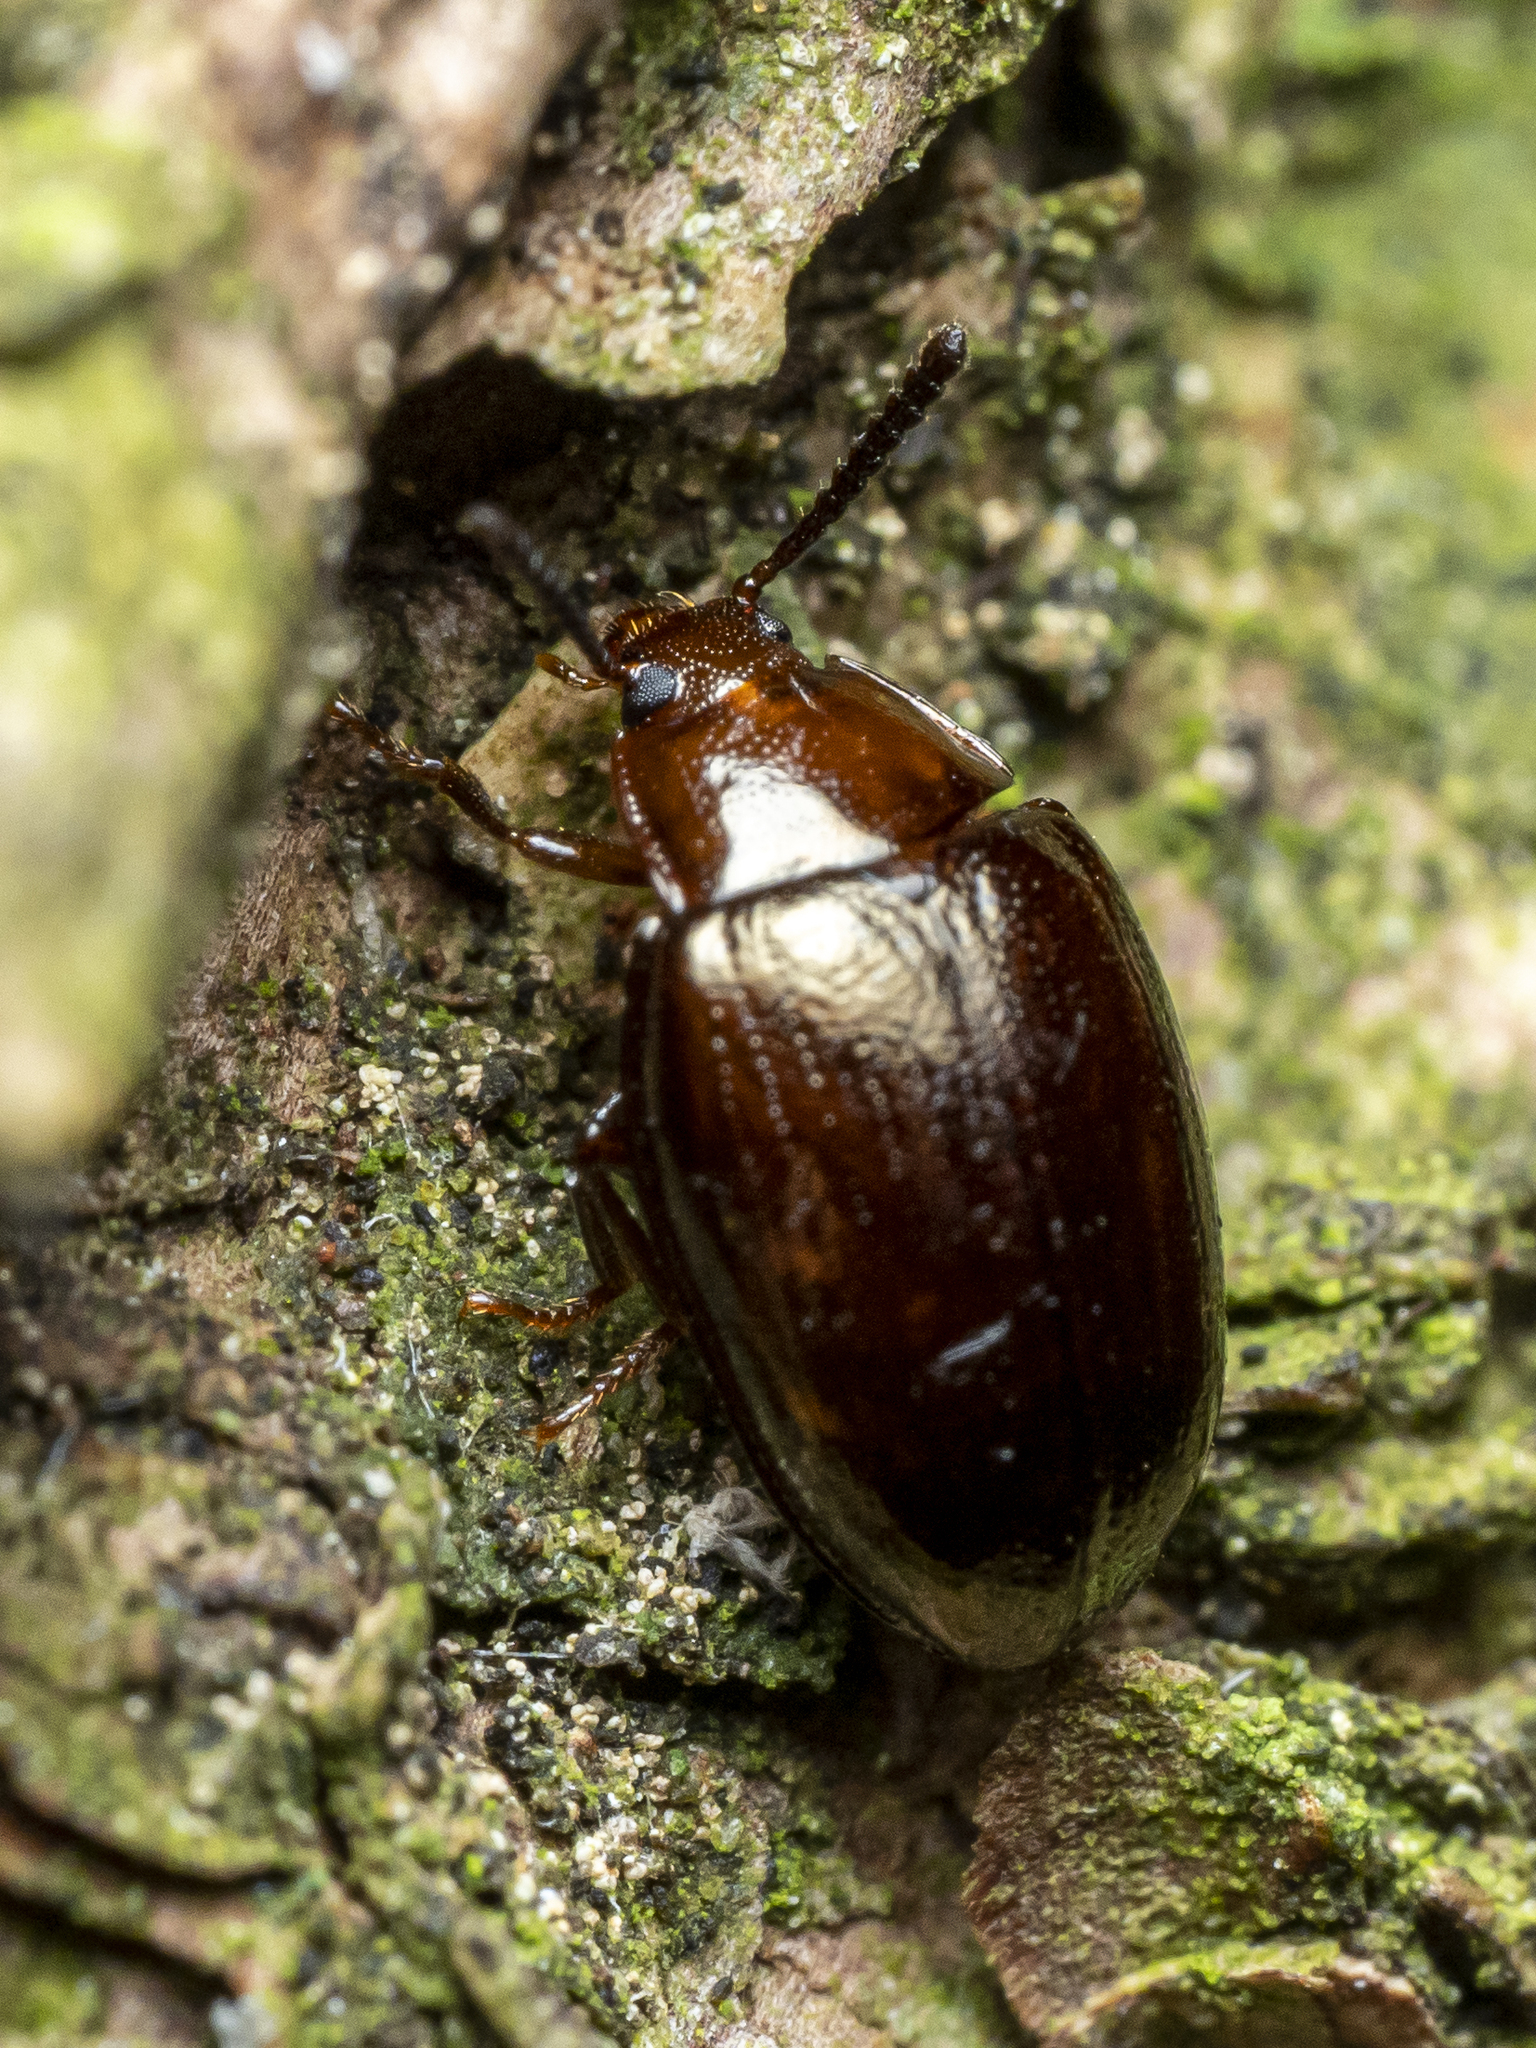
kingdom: Animalia
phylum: Arthropoda
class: Insecta
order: Coleoptera
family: Tenebrionidae
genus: Blapstinus
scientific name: Blapstinus metallicus
